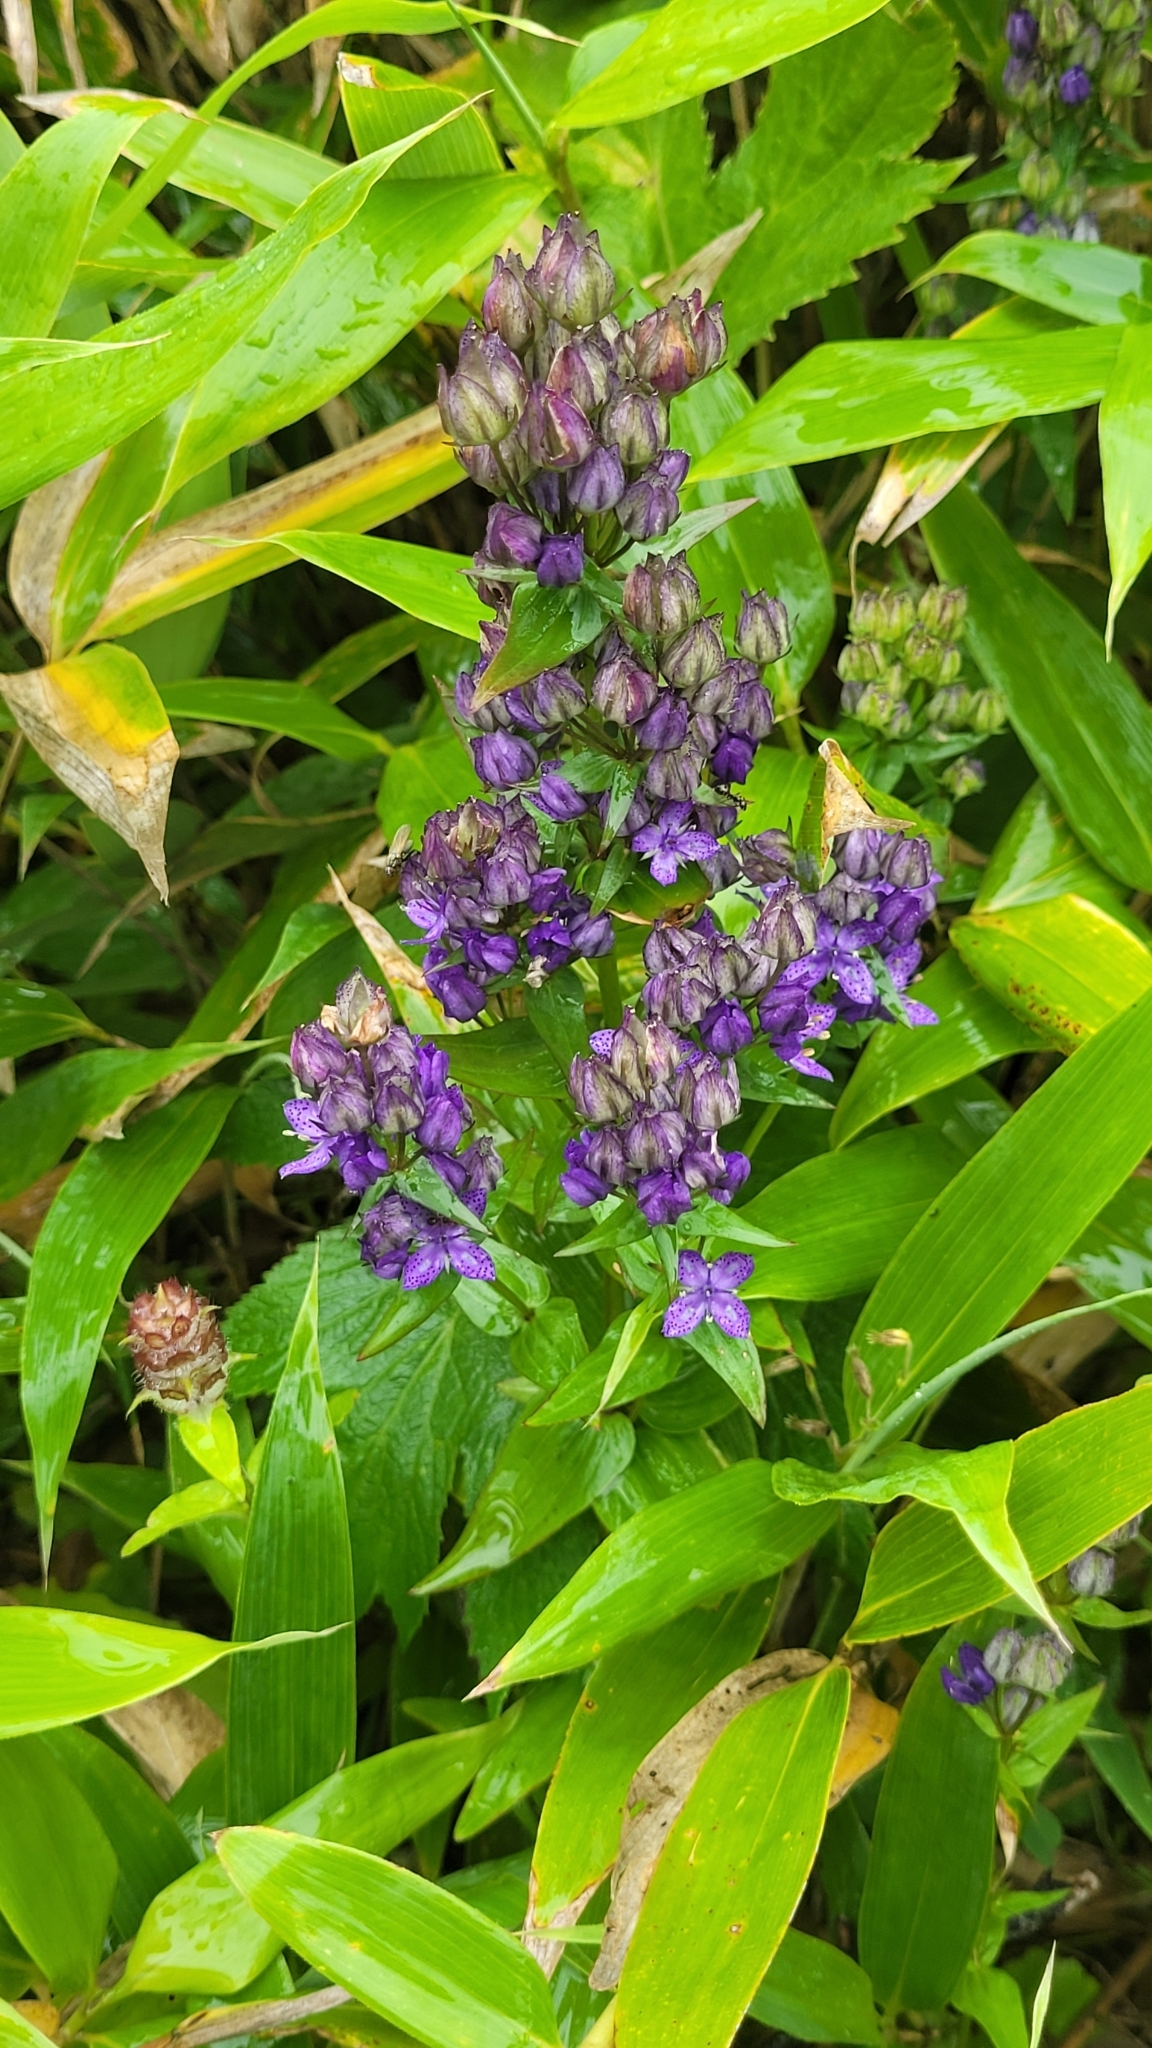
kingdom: Plantae
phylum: Tracheophyta
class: Magnoliopsida
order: Gentianales
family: Gentianaceae
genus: Swertia
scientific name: Swertia tetrapetala
